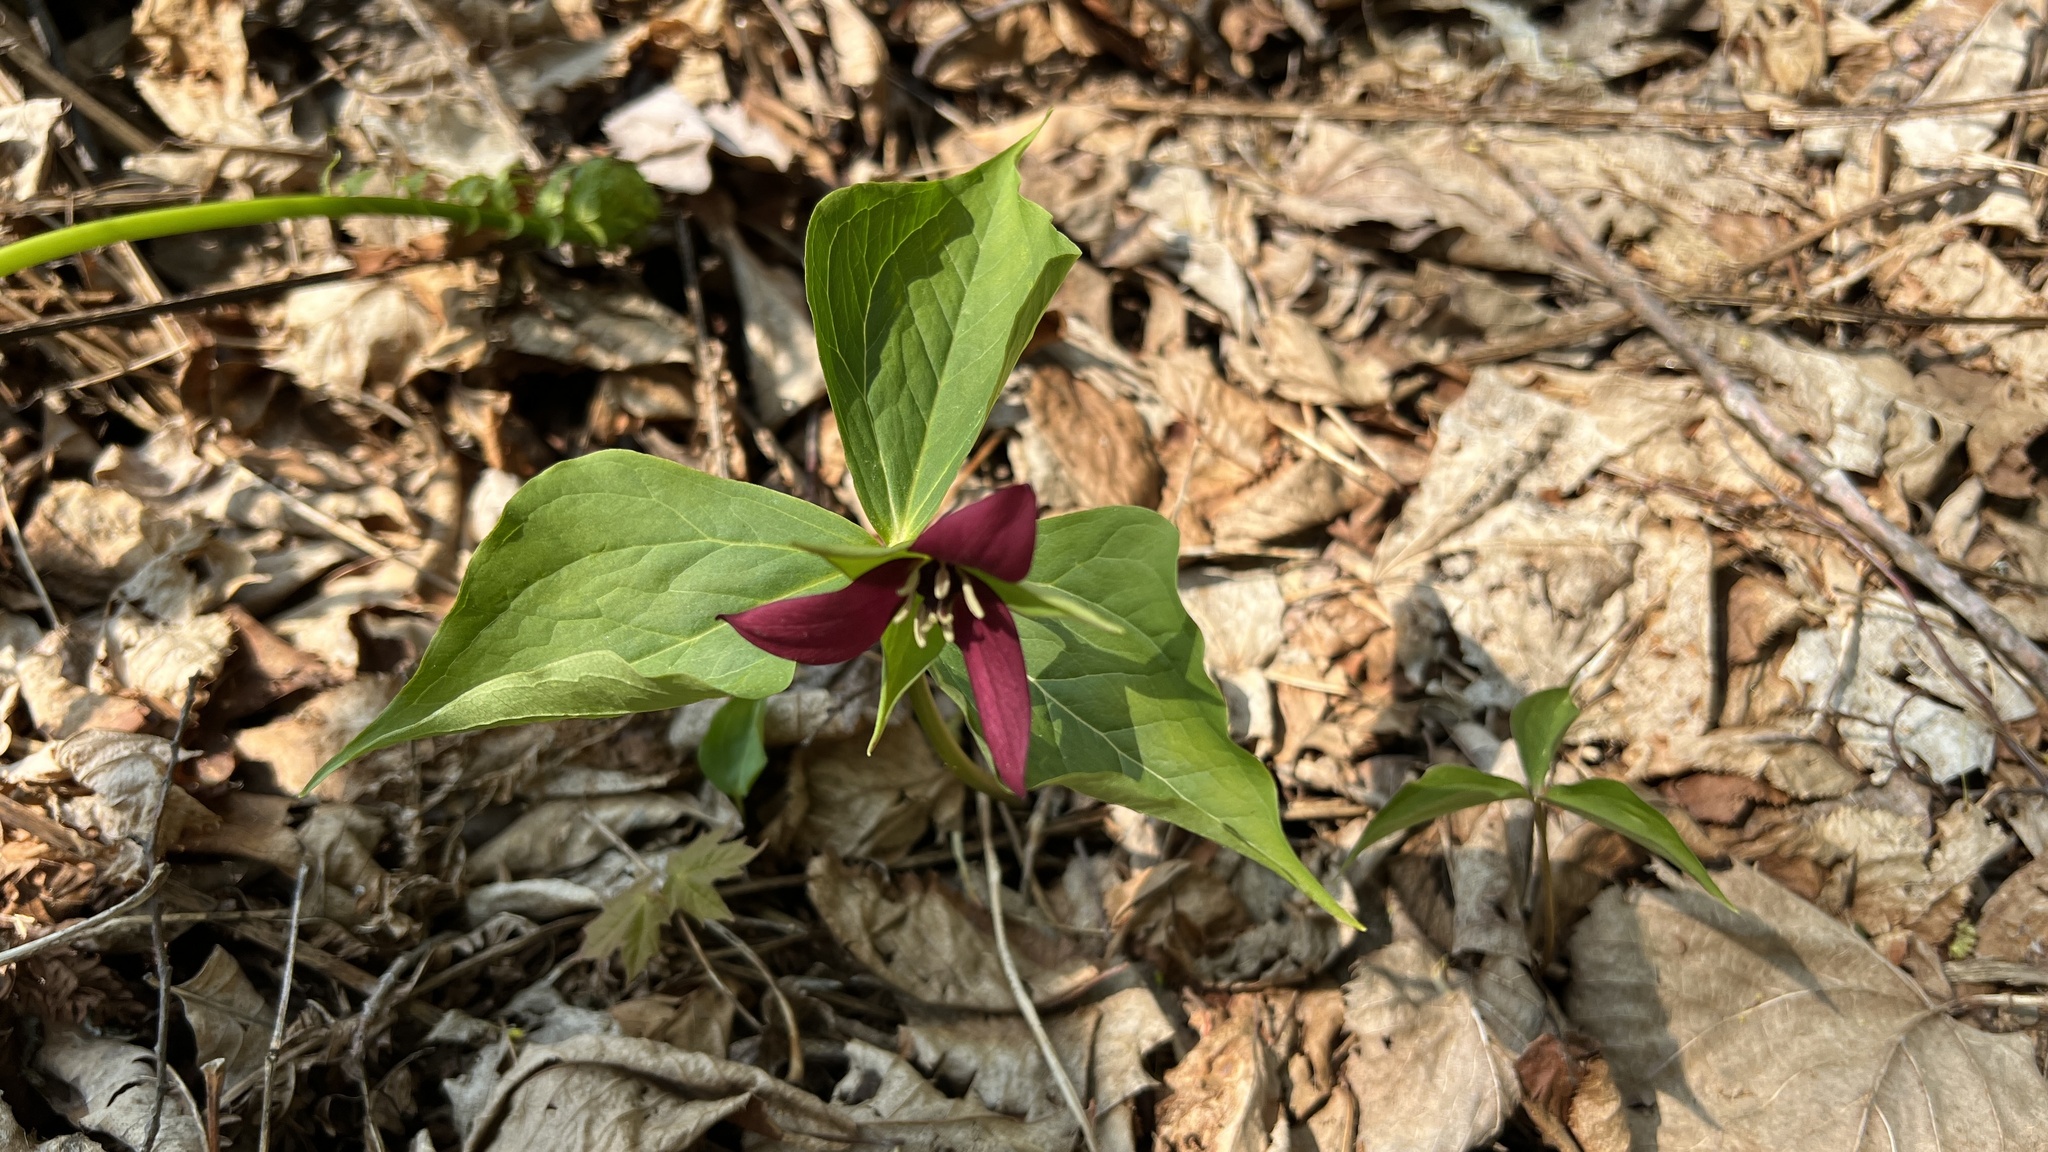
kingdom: Plantae
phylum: Tracheophyta
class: Liliopsida
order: Liliales
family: Melanthiaceae
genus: Trillium
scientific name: Trillium erectum
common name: Purple trillium
